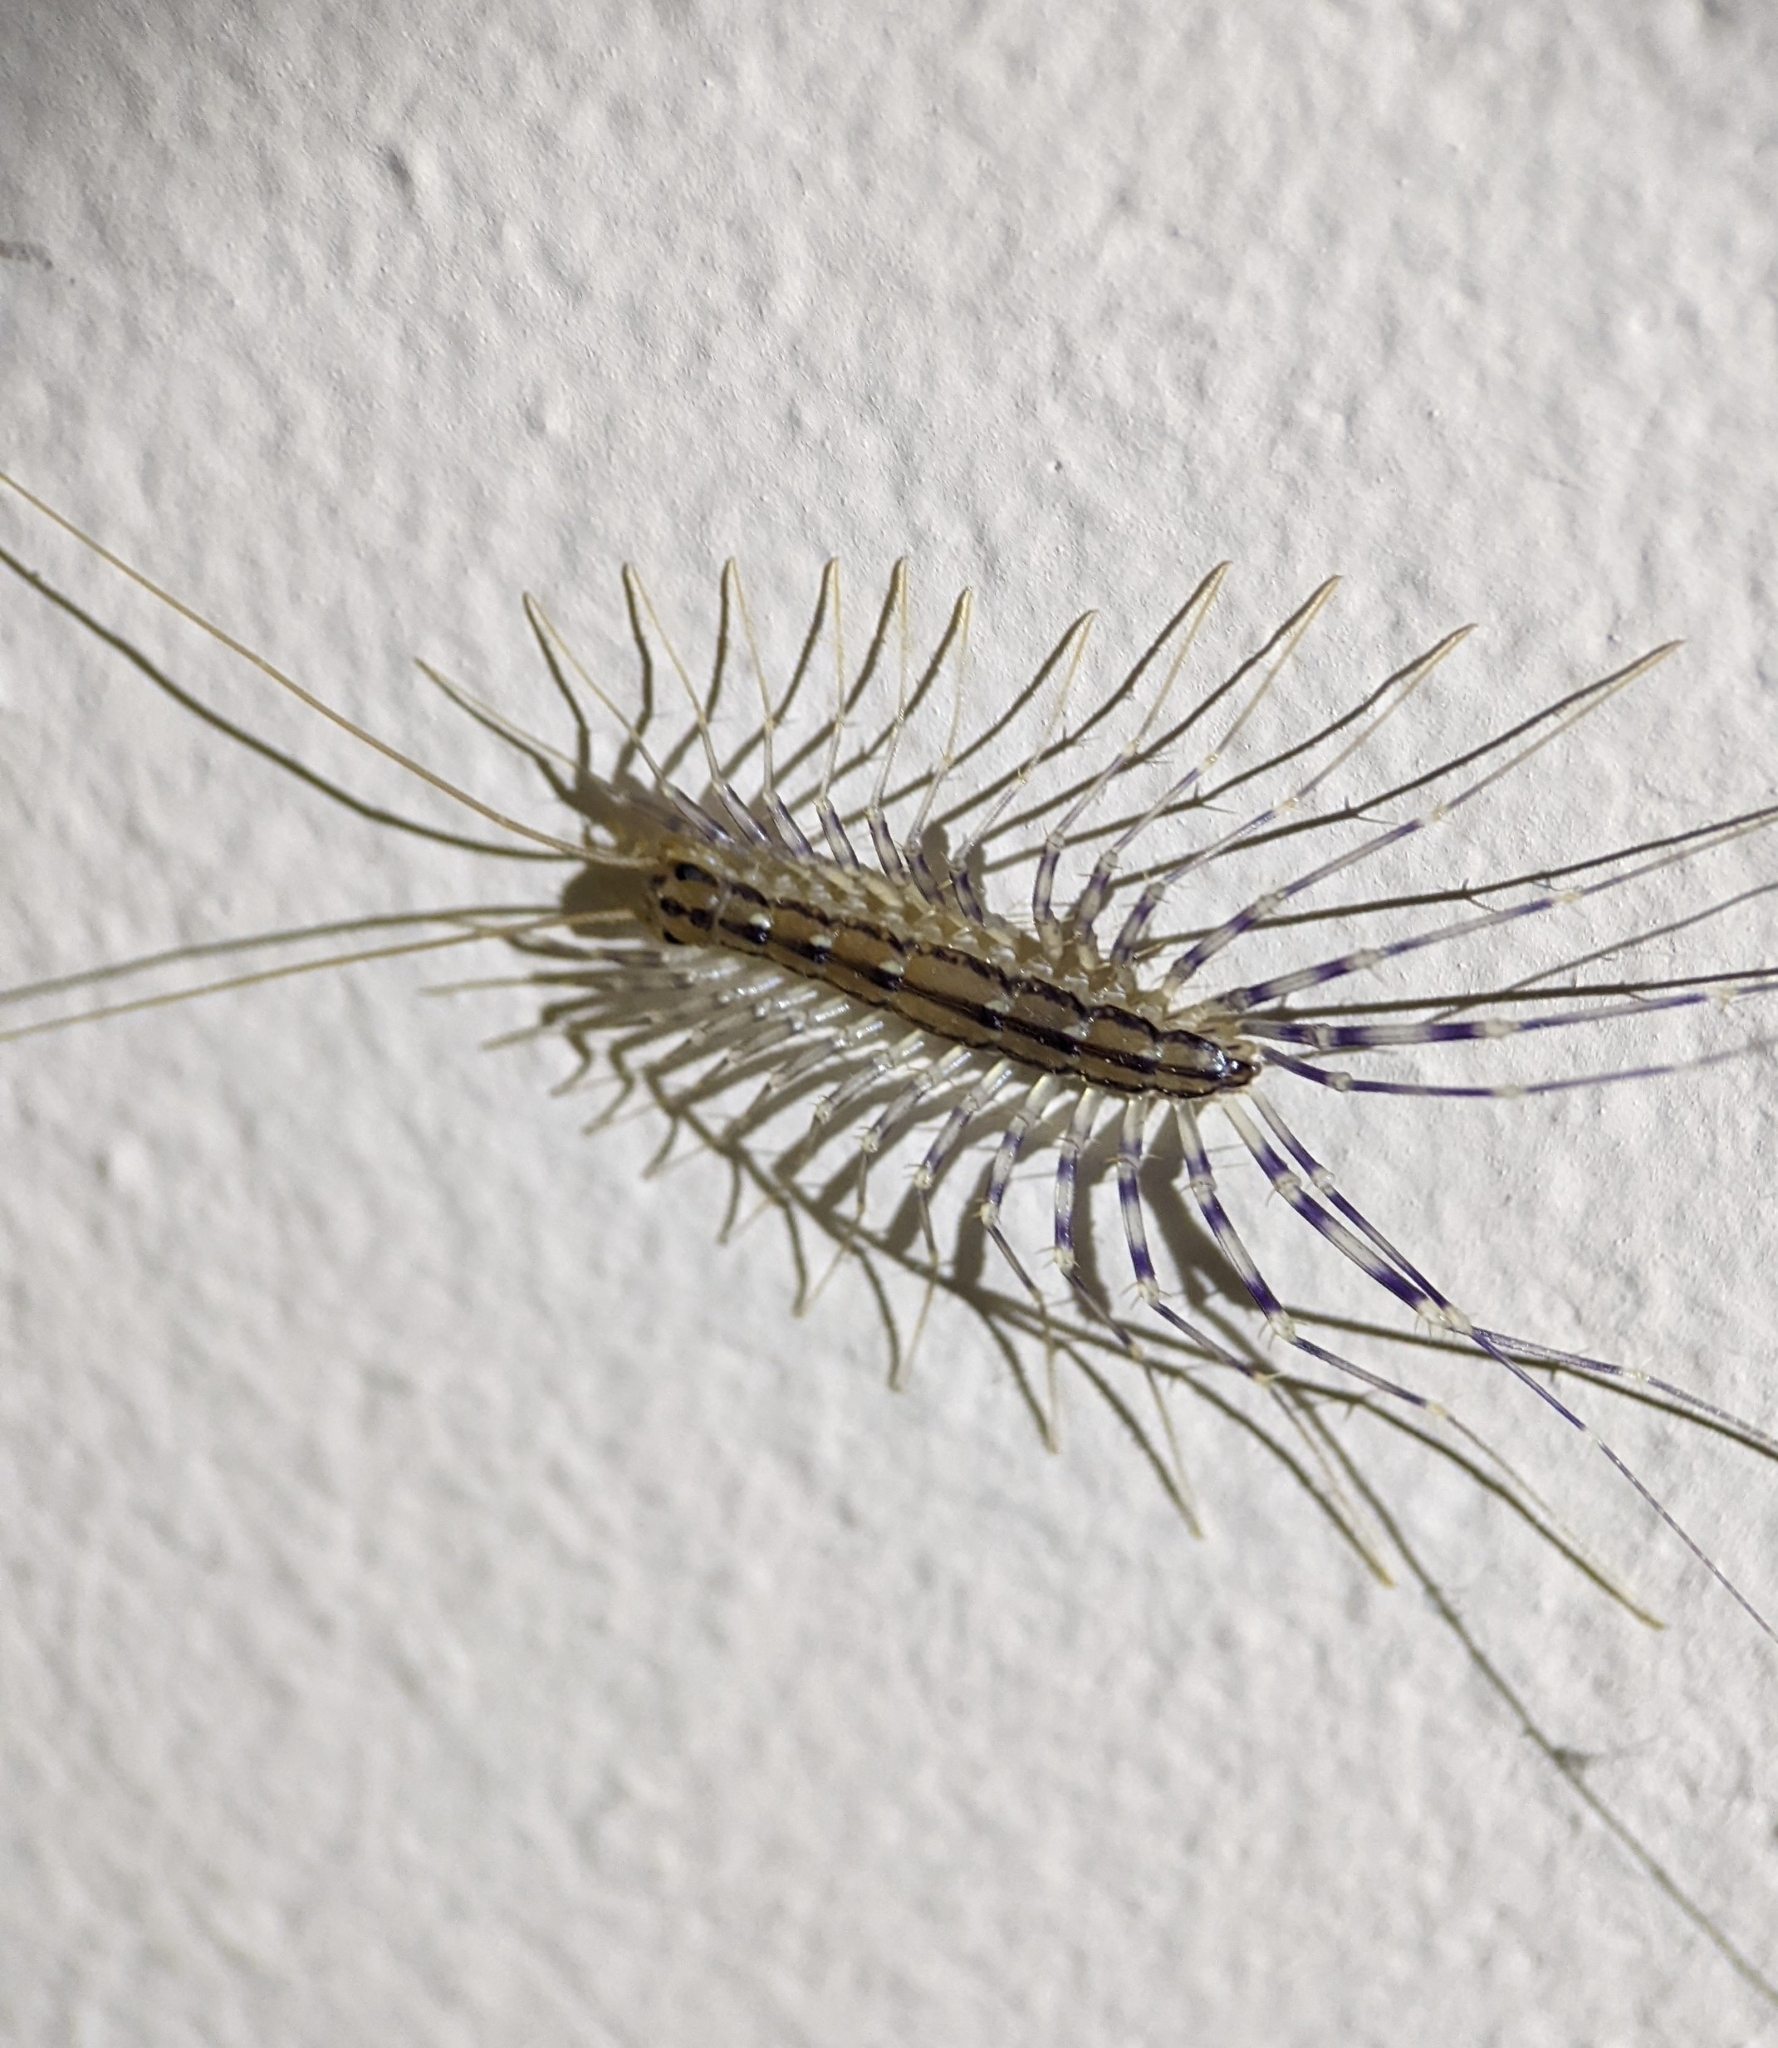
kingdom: Animalia
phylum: Arthropoda
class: Chilopoda
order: Scutigeromorpha
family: Scutigeridae
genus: Scutigera
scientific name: Scutigera coleoptrata
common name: House centipede
